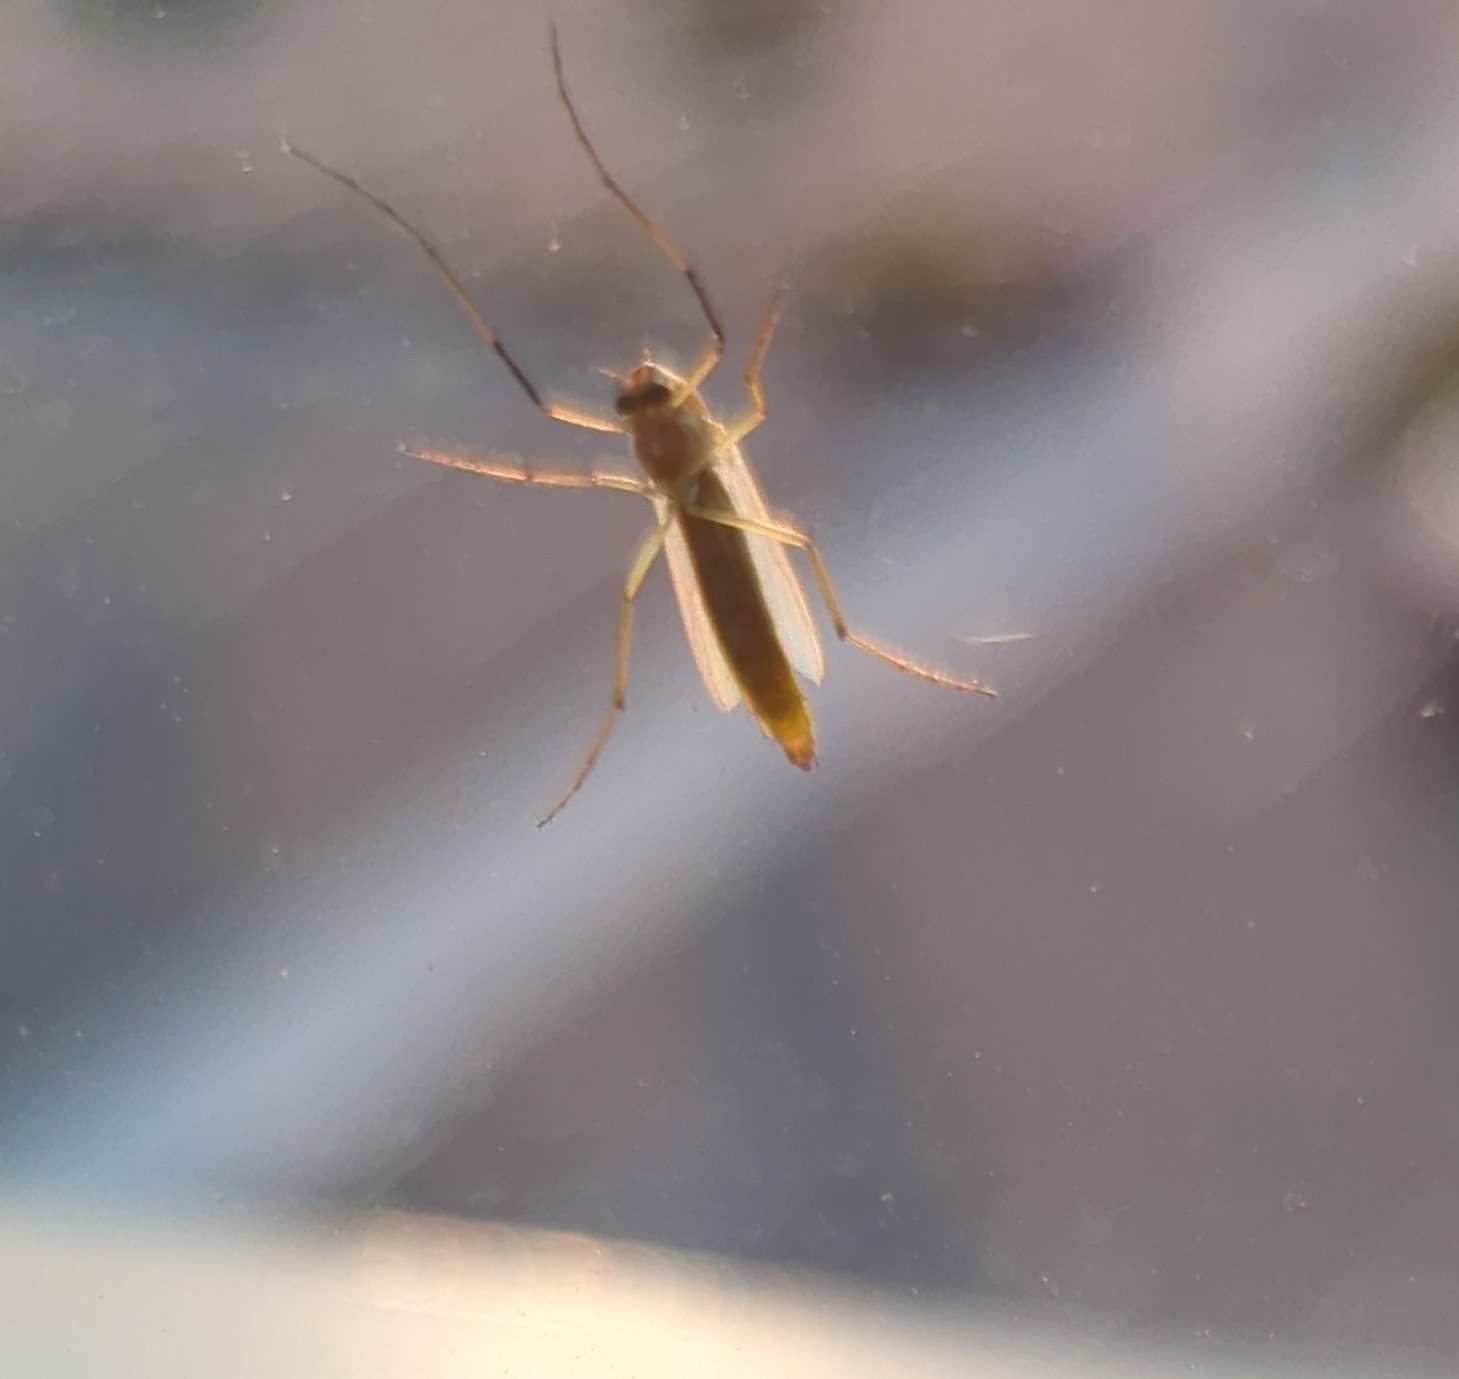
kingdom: Animalia
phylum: Arthropoda
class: Insecta
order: Diptera
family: Chironomidae
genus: Axarus
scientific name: Axarus
